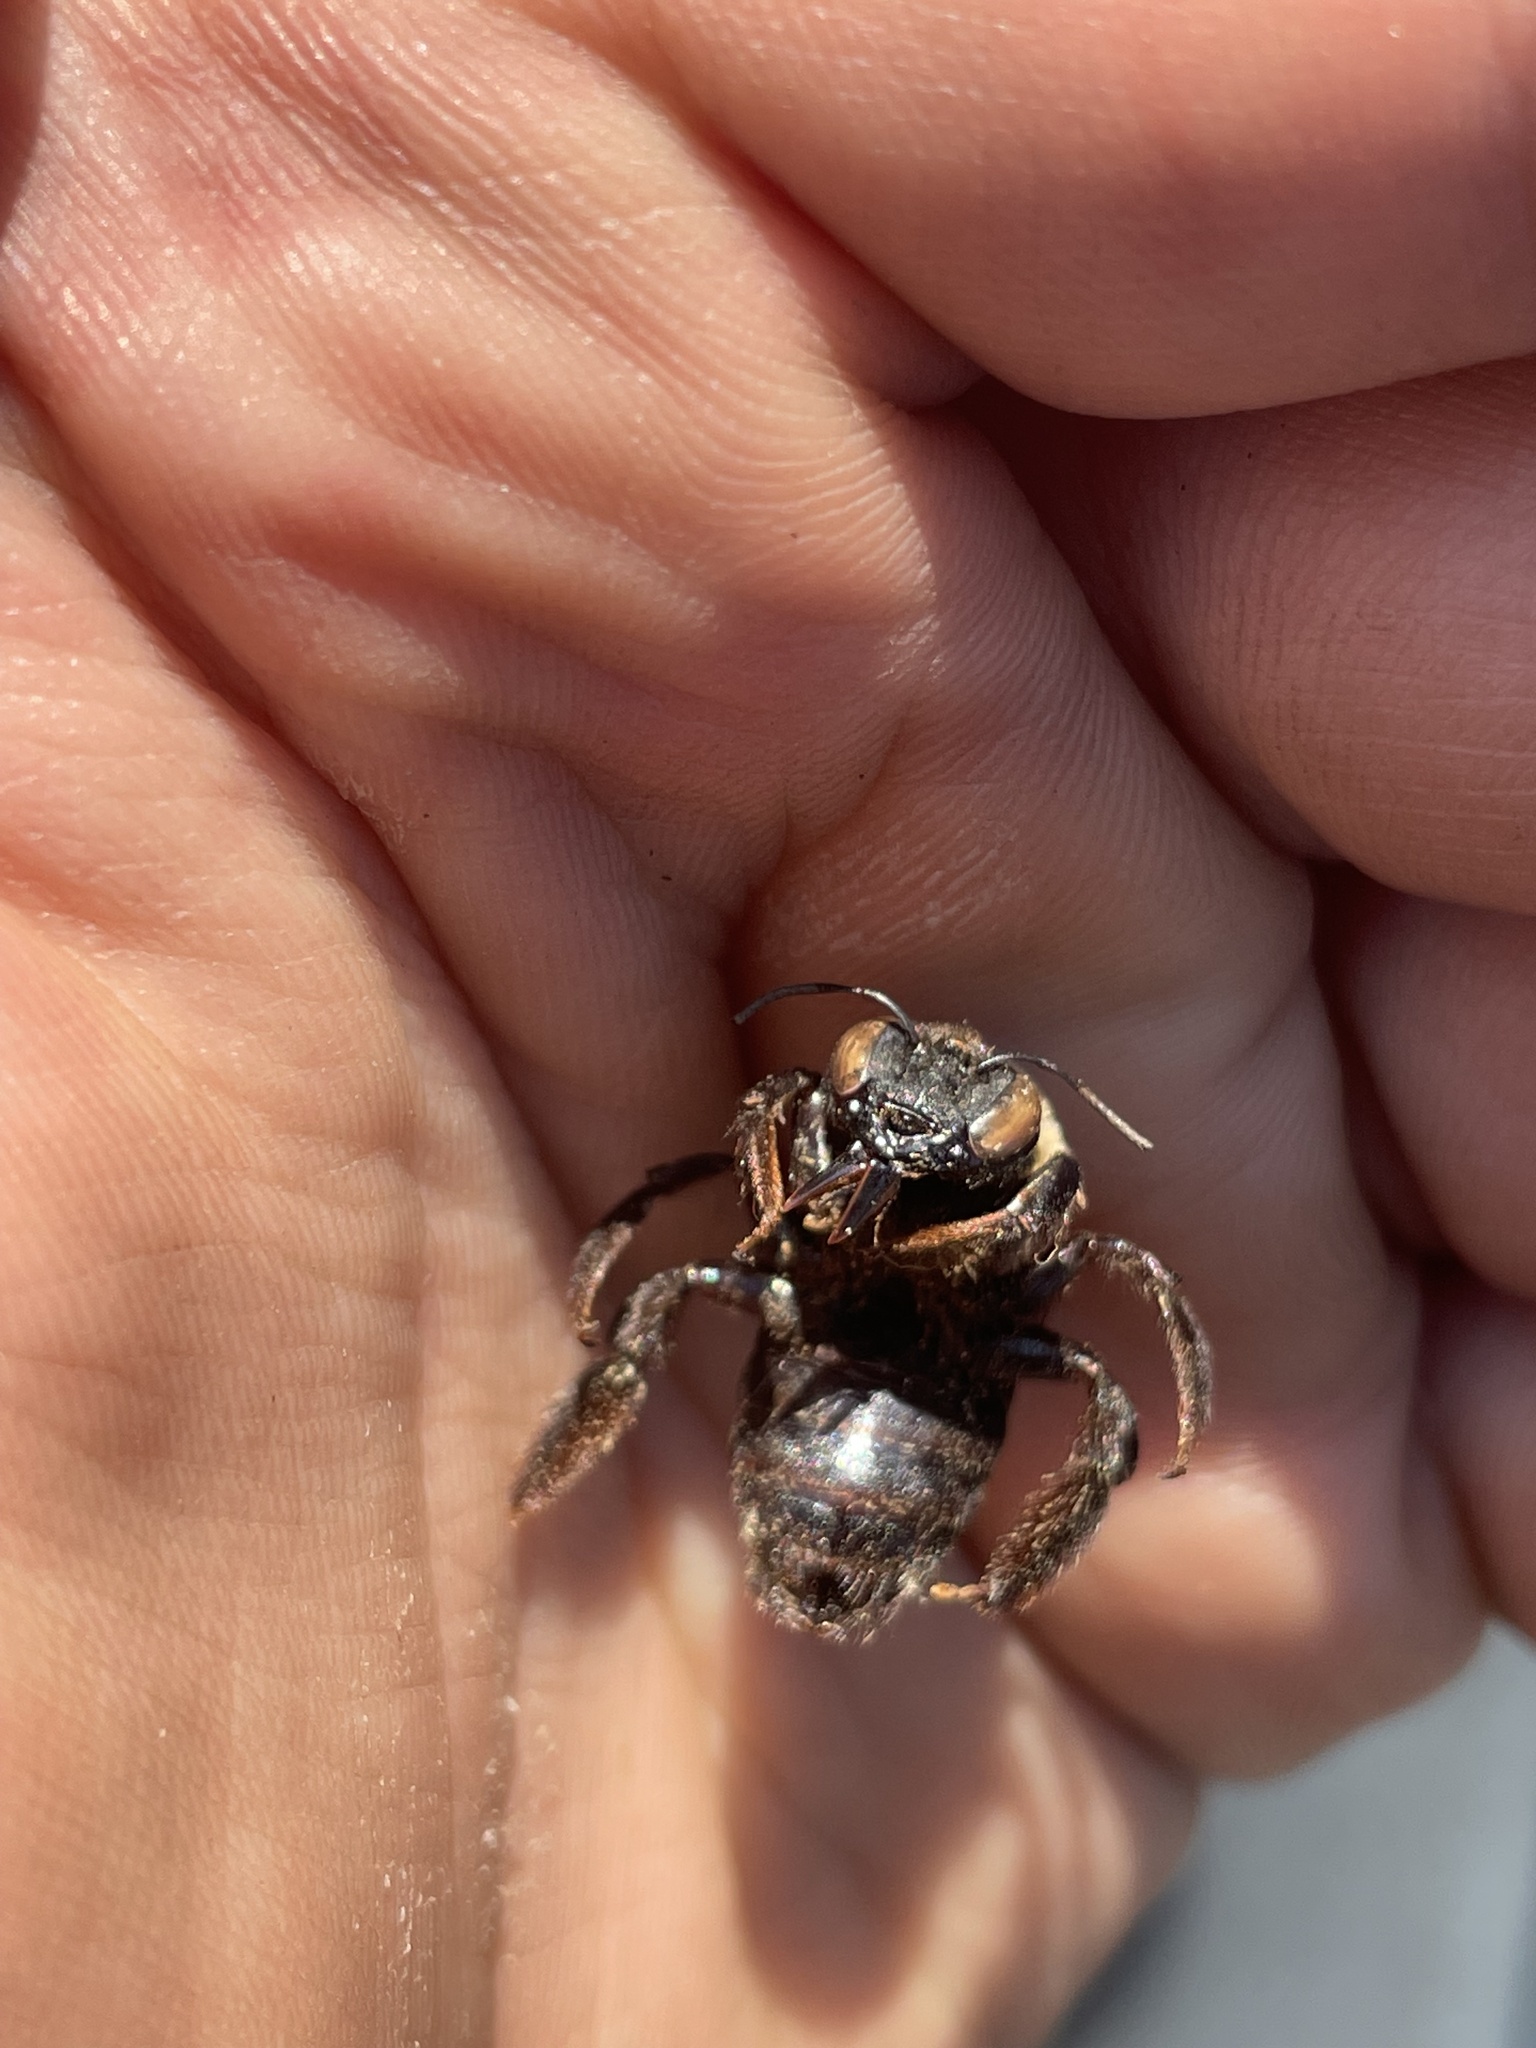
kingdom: Animalia
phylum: Arthropoda
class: Insecta
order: Hymenoptera
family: Apidae
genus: Xylocopa
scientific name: Xylocopa virginica
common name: Carpenter bee
